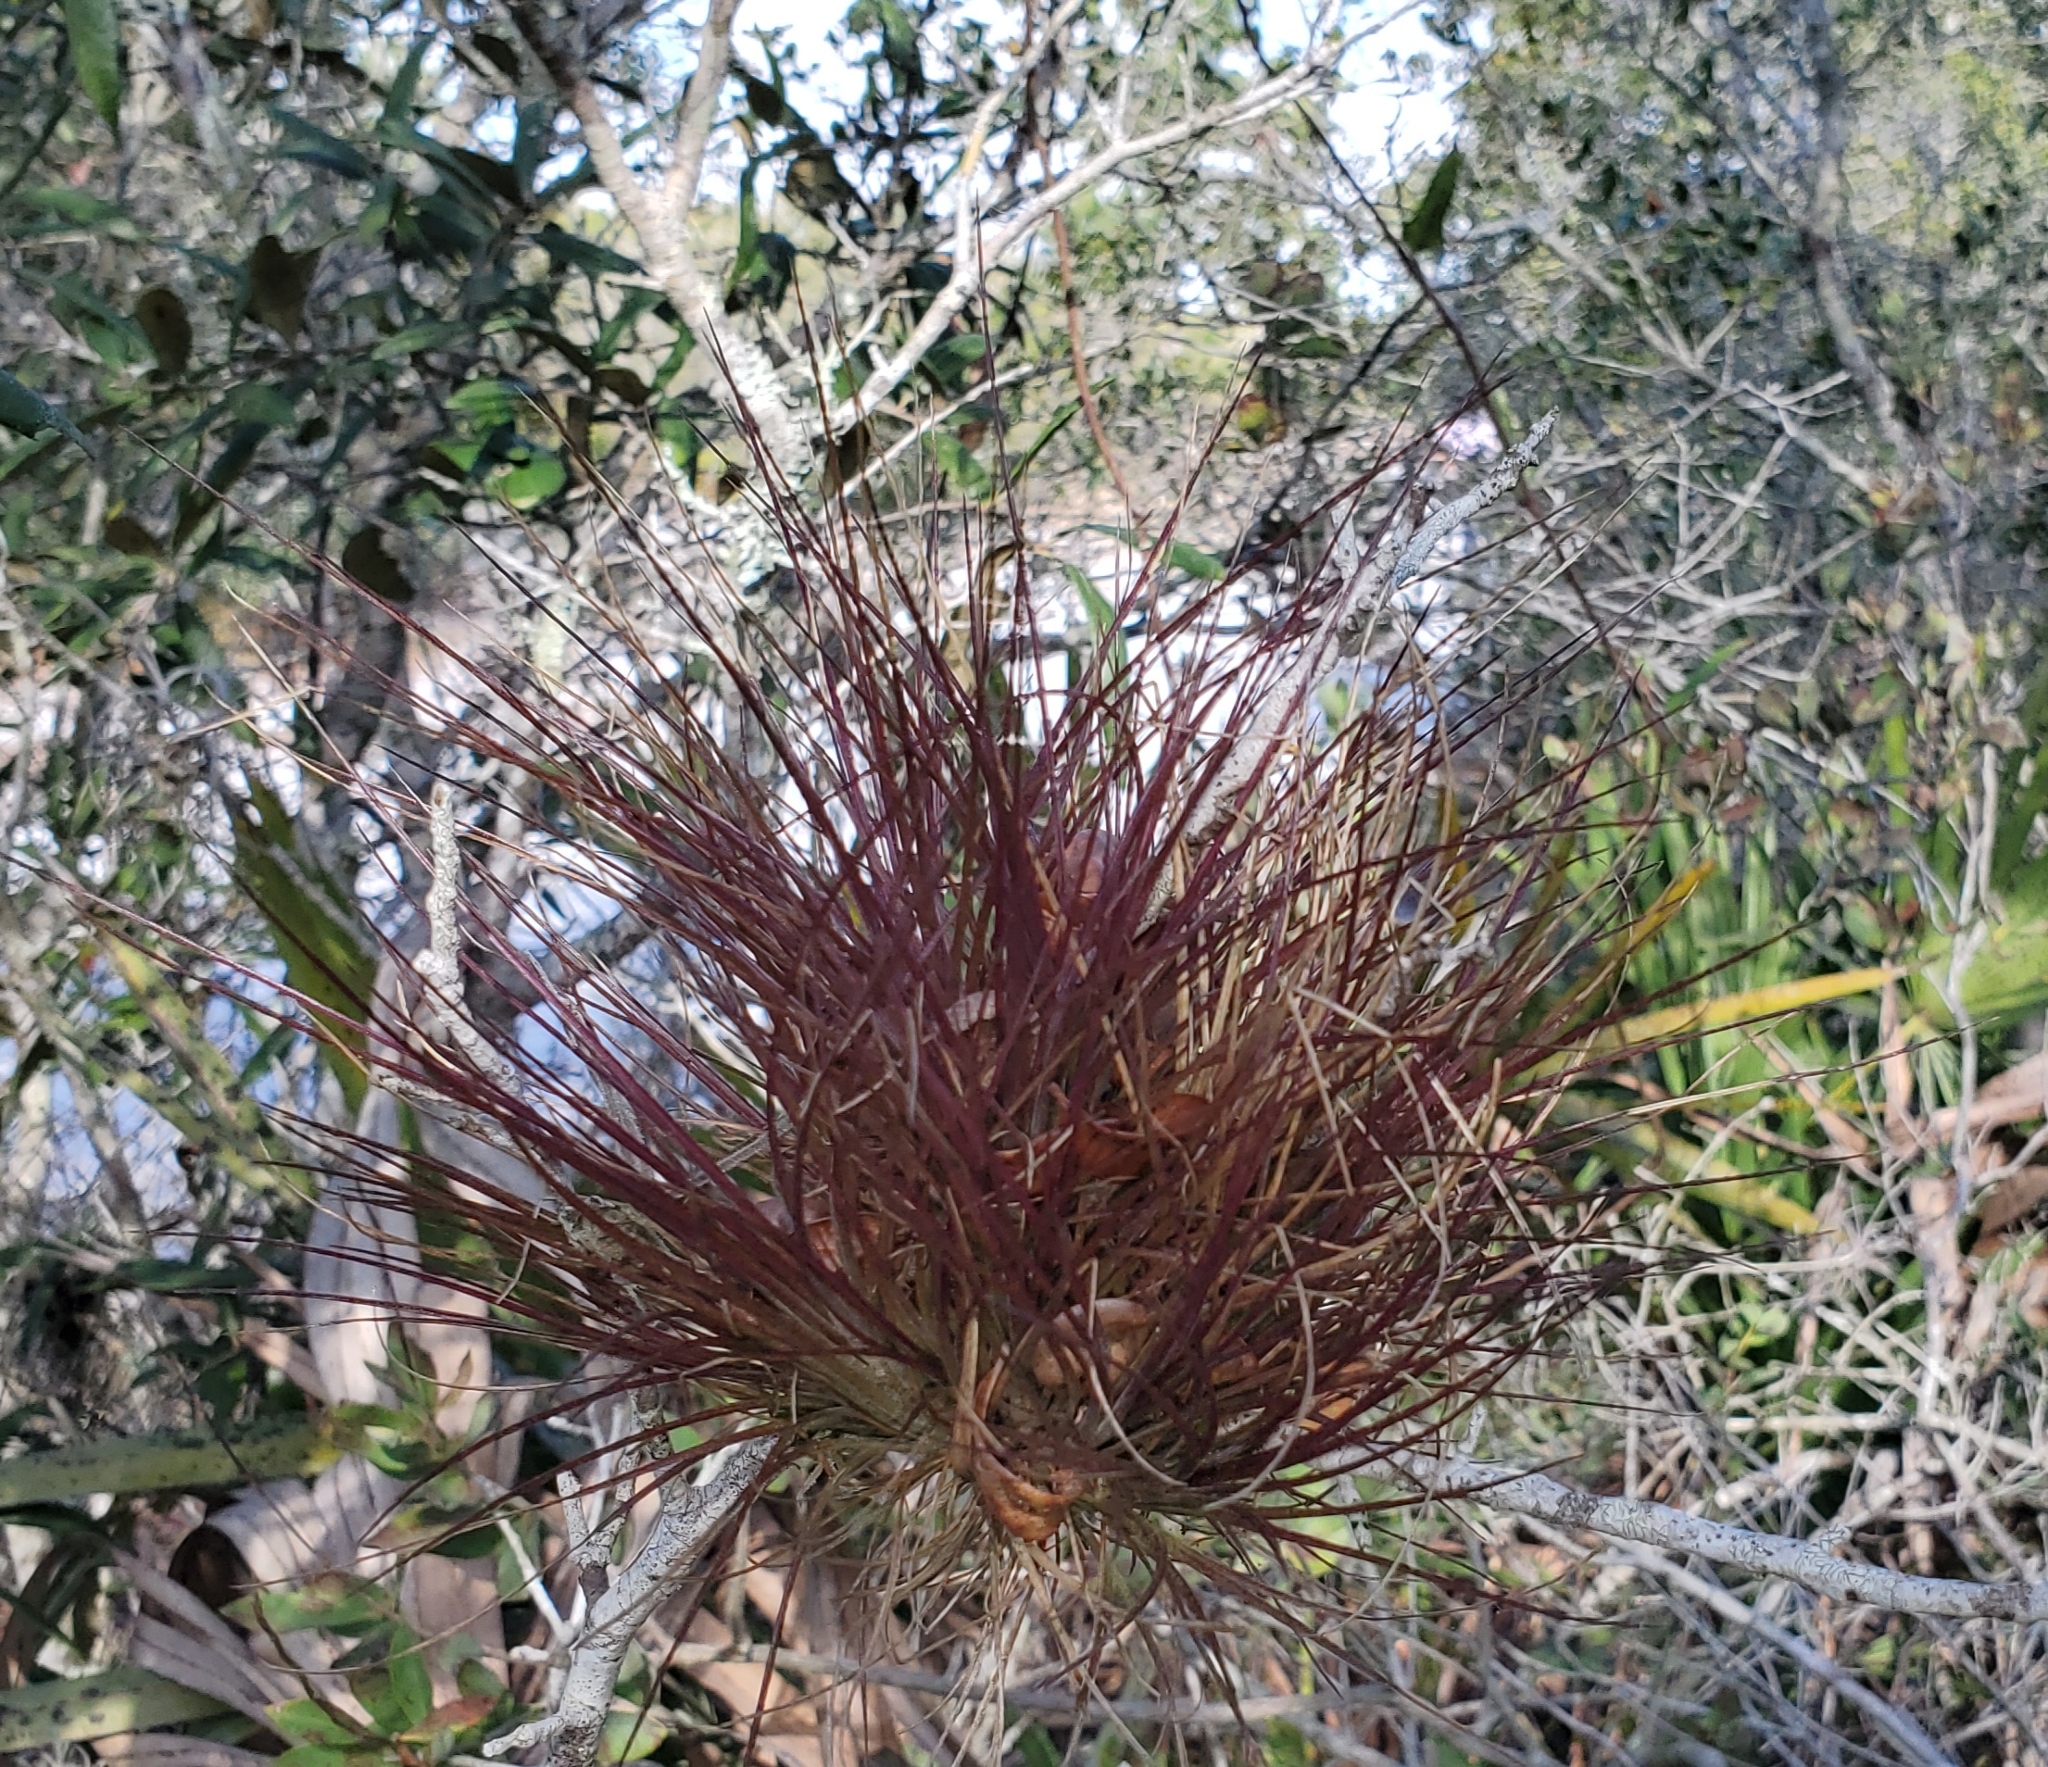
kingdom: Plantae
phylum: Tracheophyta
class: Liliopsida
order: Poales
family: Bromeliaceae
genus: Tillandsia
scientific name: Tillandsia setacea
